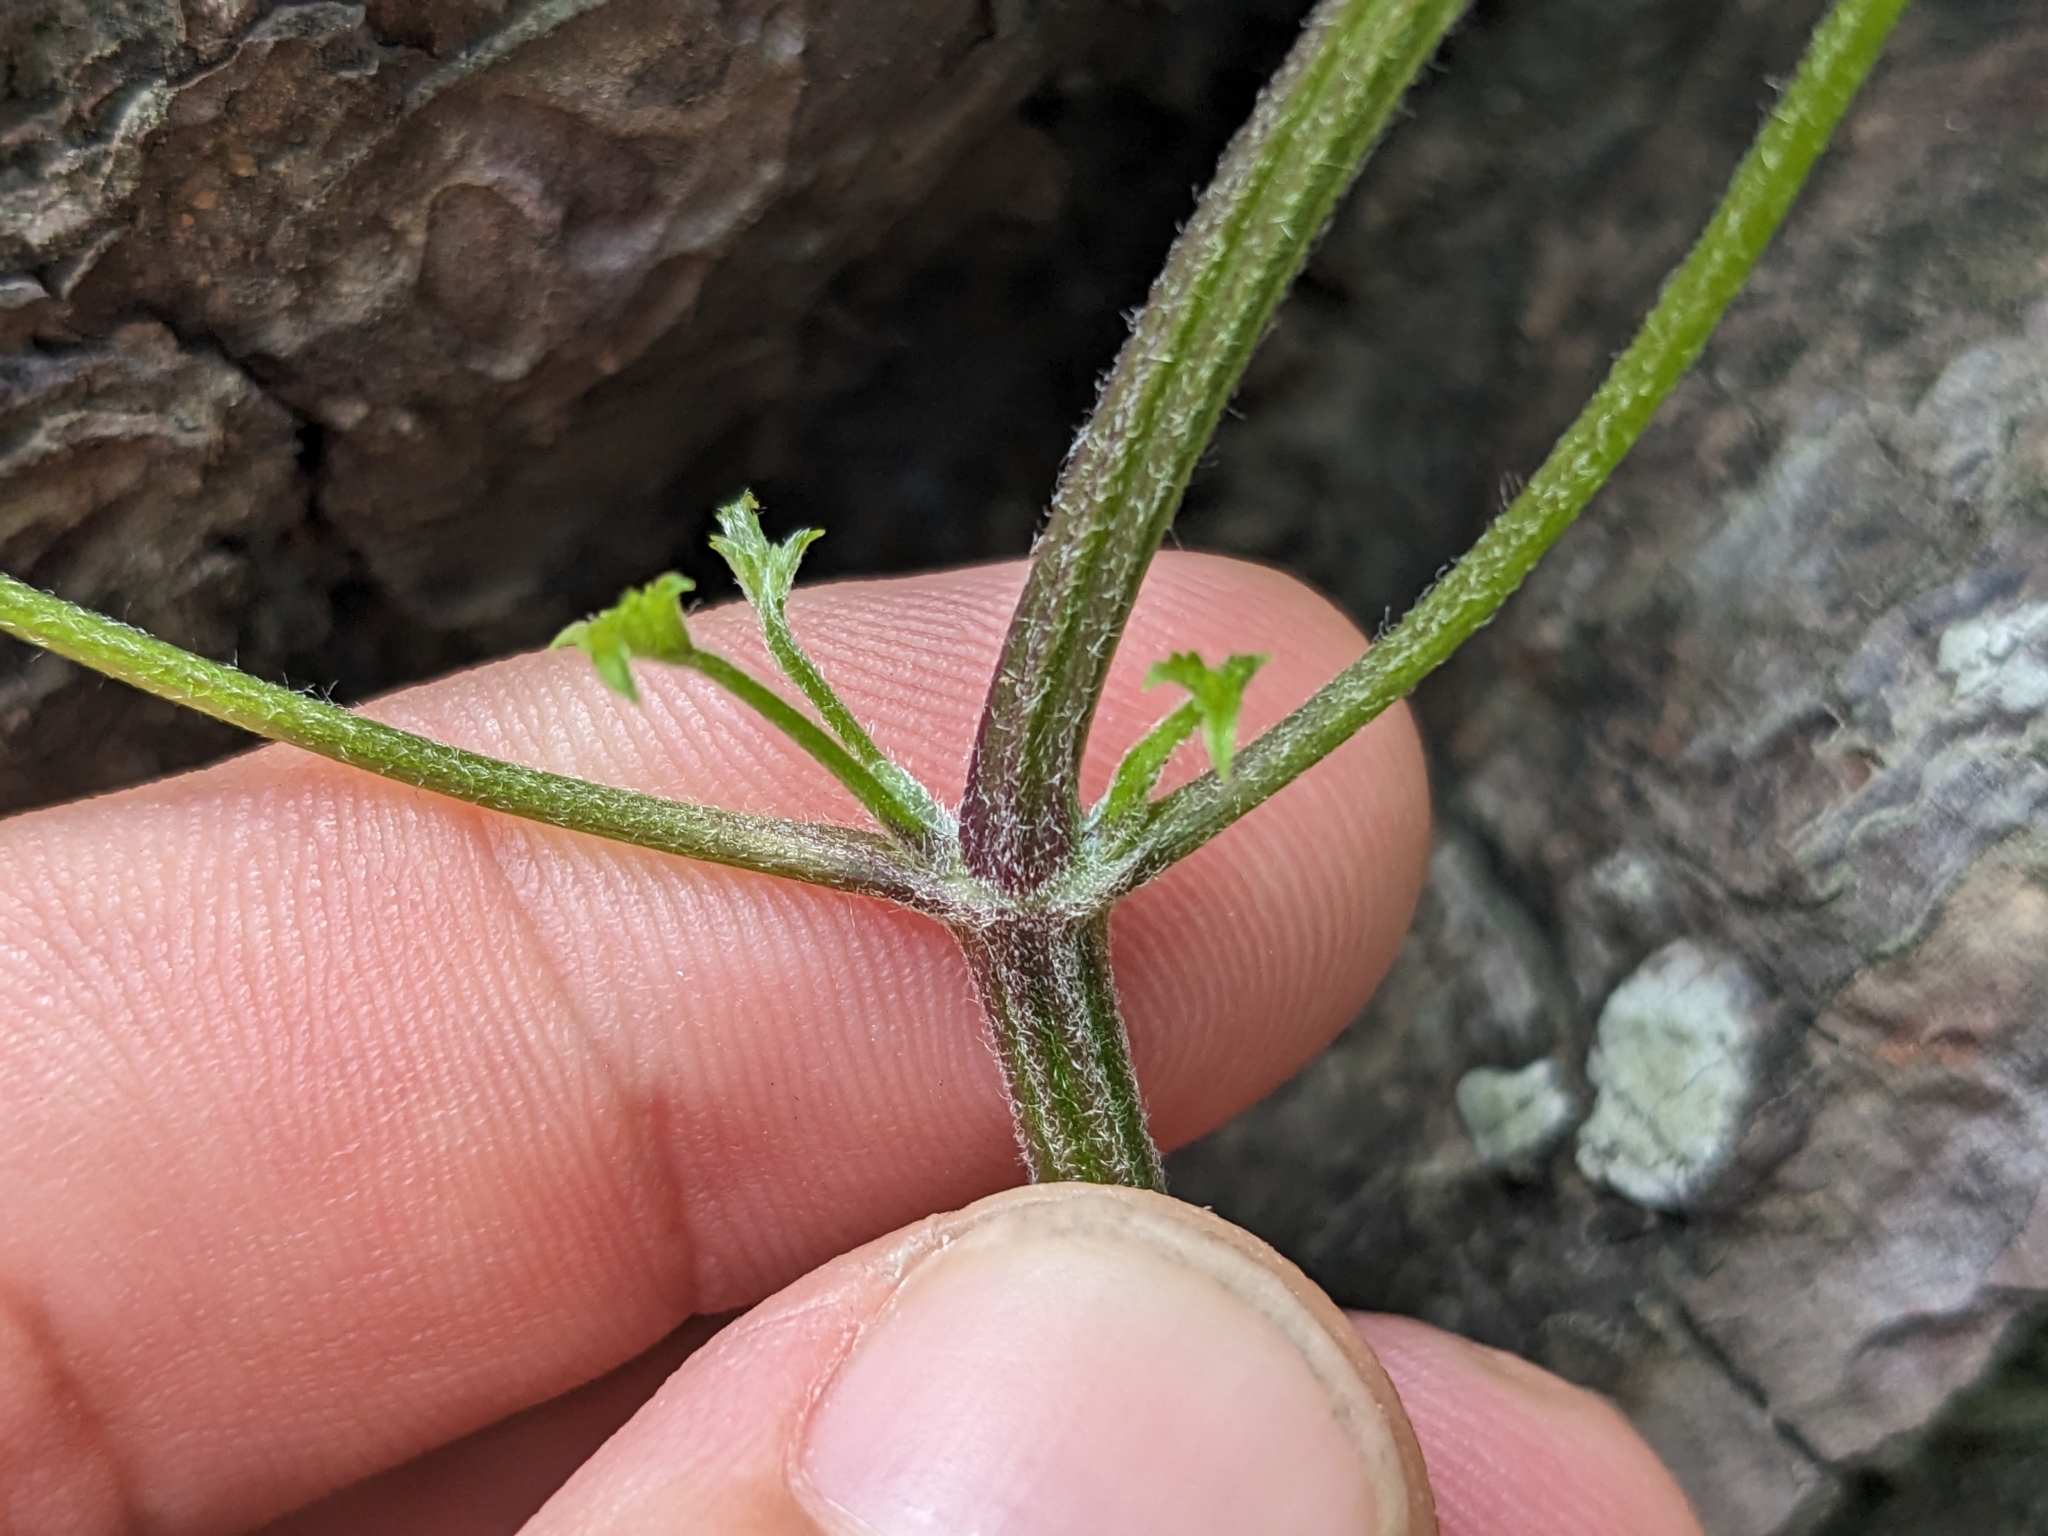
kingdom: Plantae
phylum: Tracheophyta
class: Magnoliopsida
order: Ranunculales
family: Ranunculaceae
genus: Clematis
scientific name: Clematis grata
